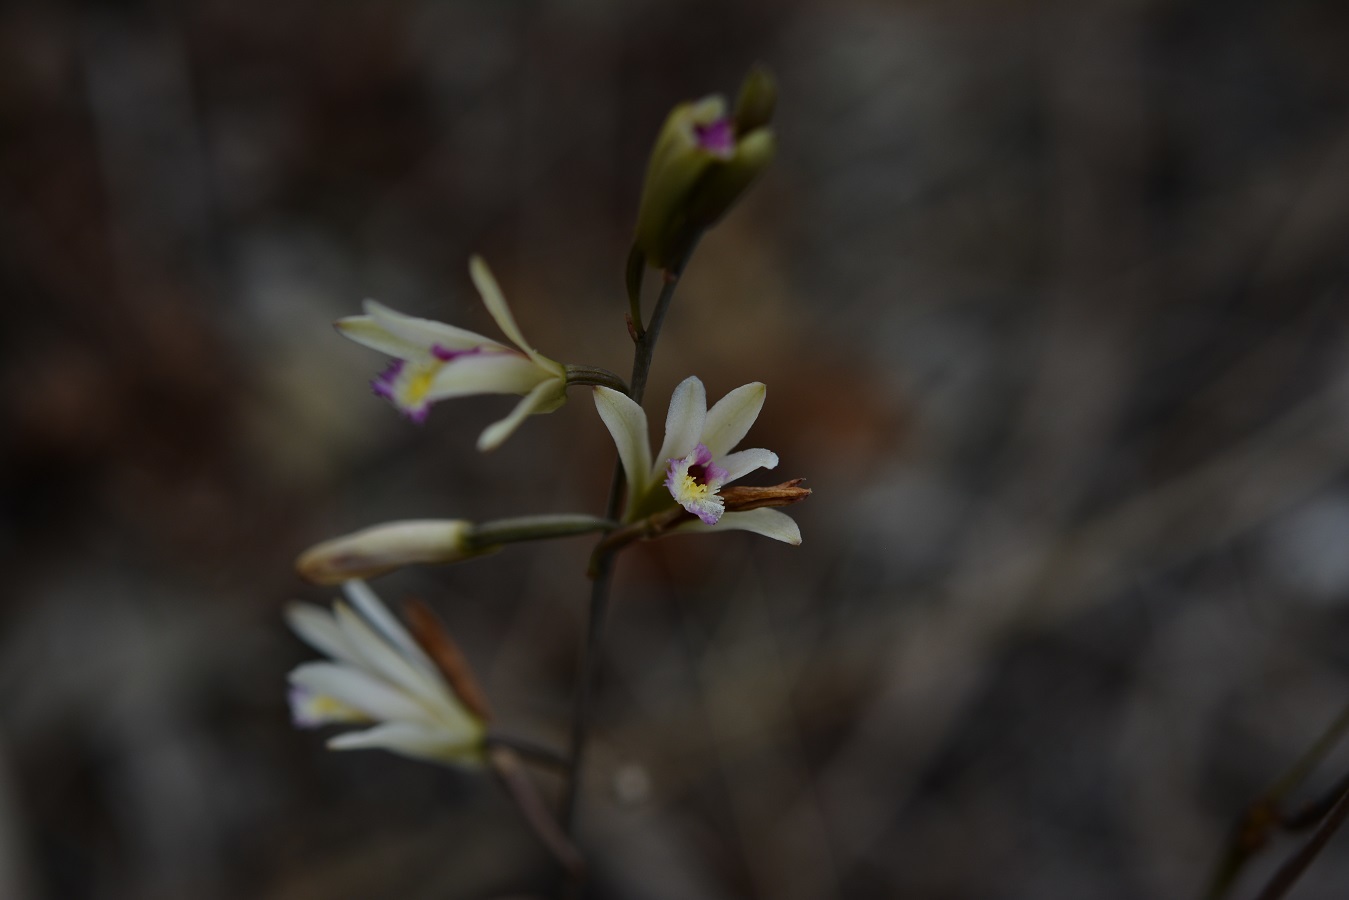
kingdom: Plantae
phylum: Tracheophyta
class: Liliopsida
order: Asparagales
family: Orchidaceae
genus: Bletia
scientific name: Bletia parkinsonii
